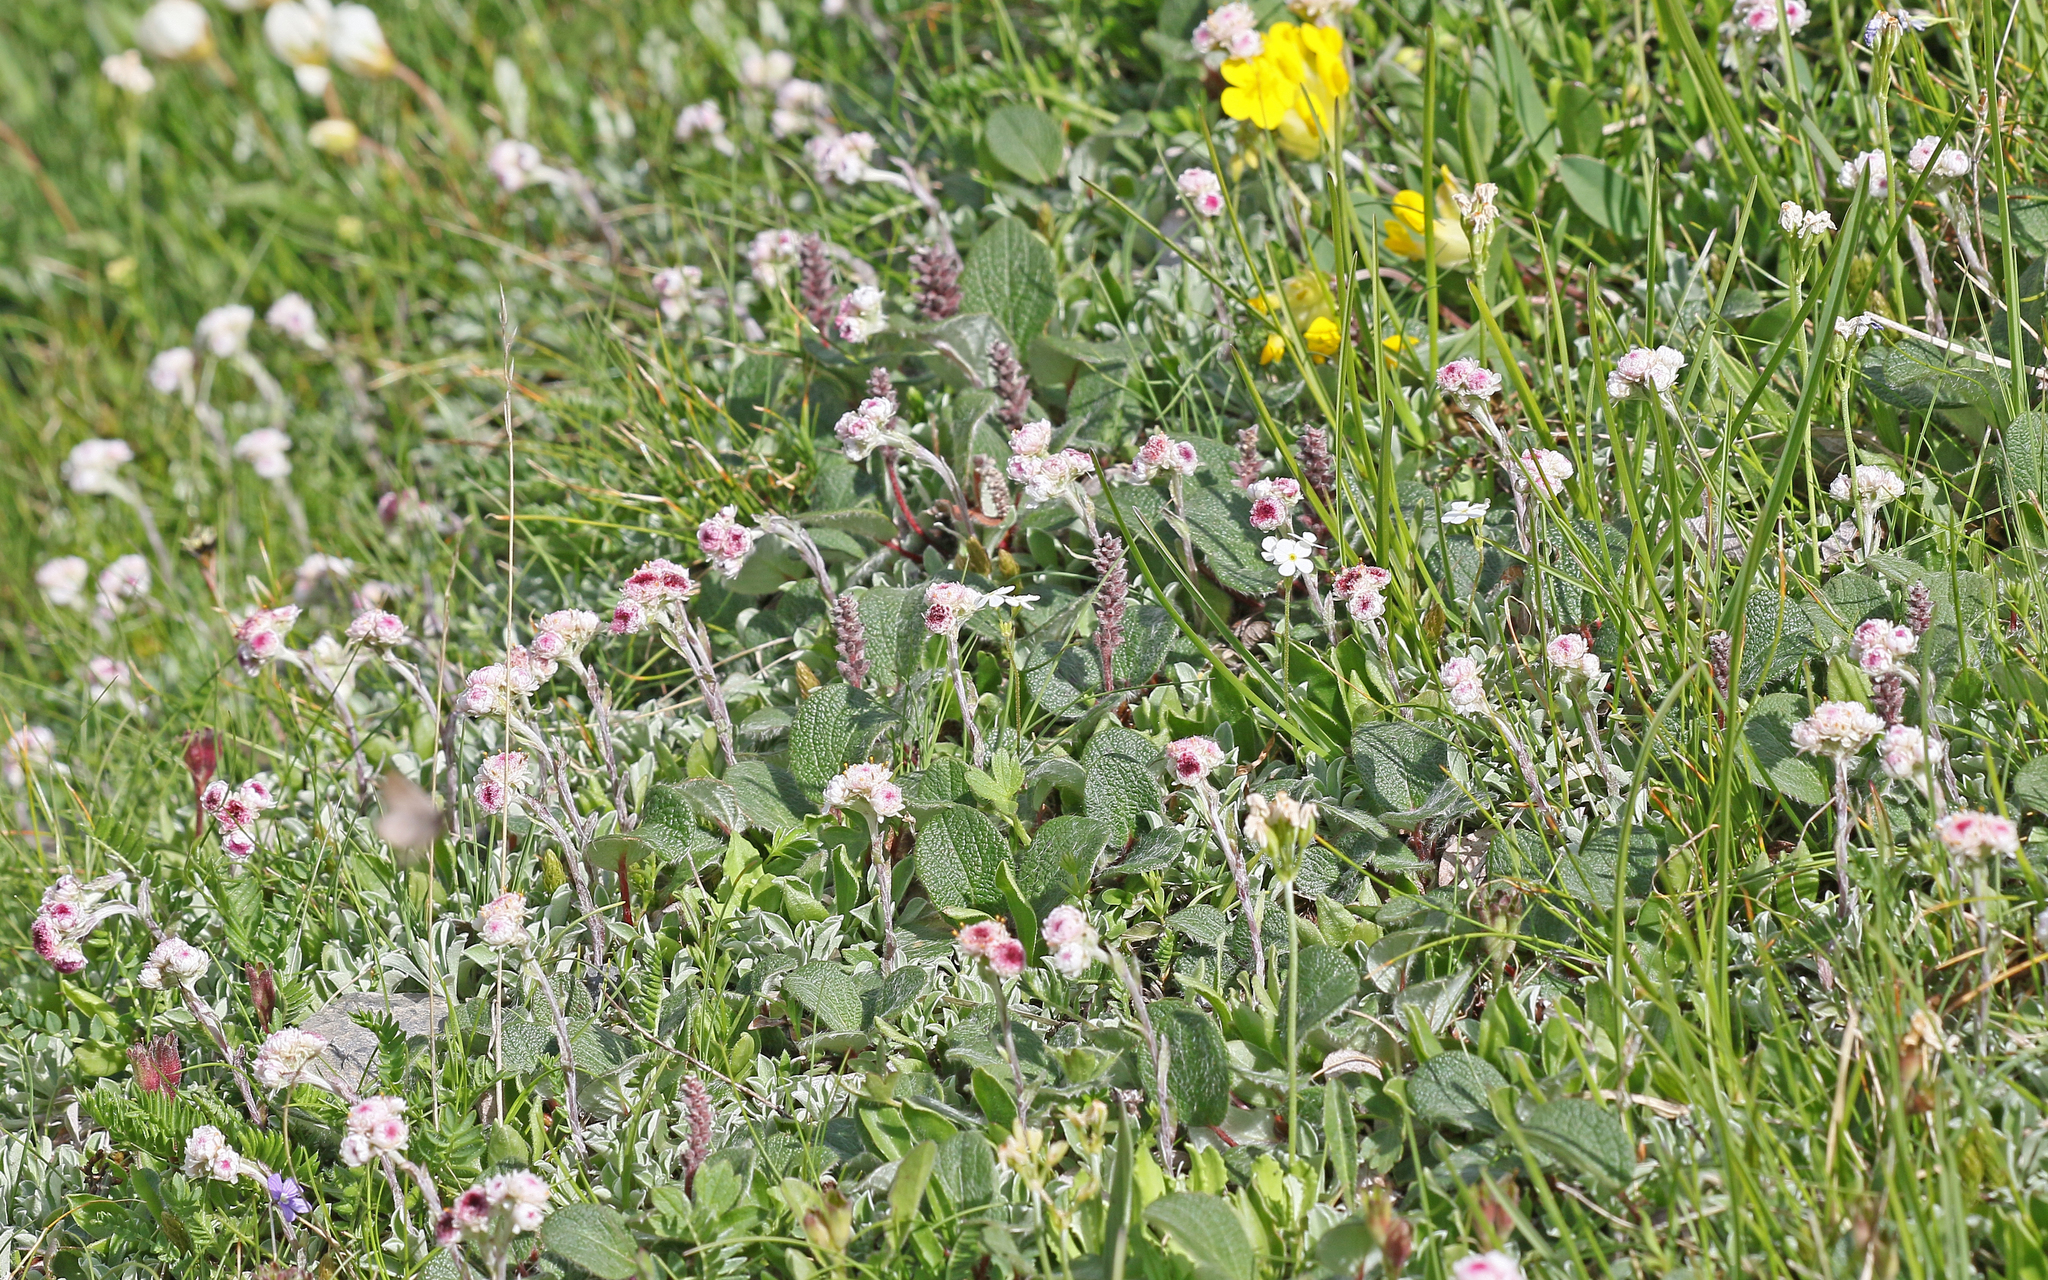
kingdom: Plantae
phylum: Tracheophyta
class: Magnoliopsida
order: Asterales
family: Asteraceae
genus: Antennaria
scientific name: Antennaria dioica
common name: Mountain everlasting
